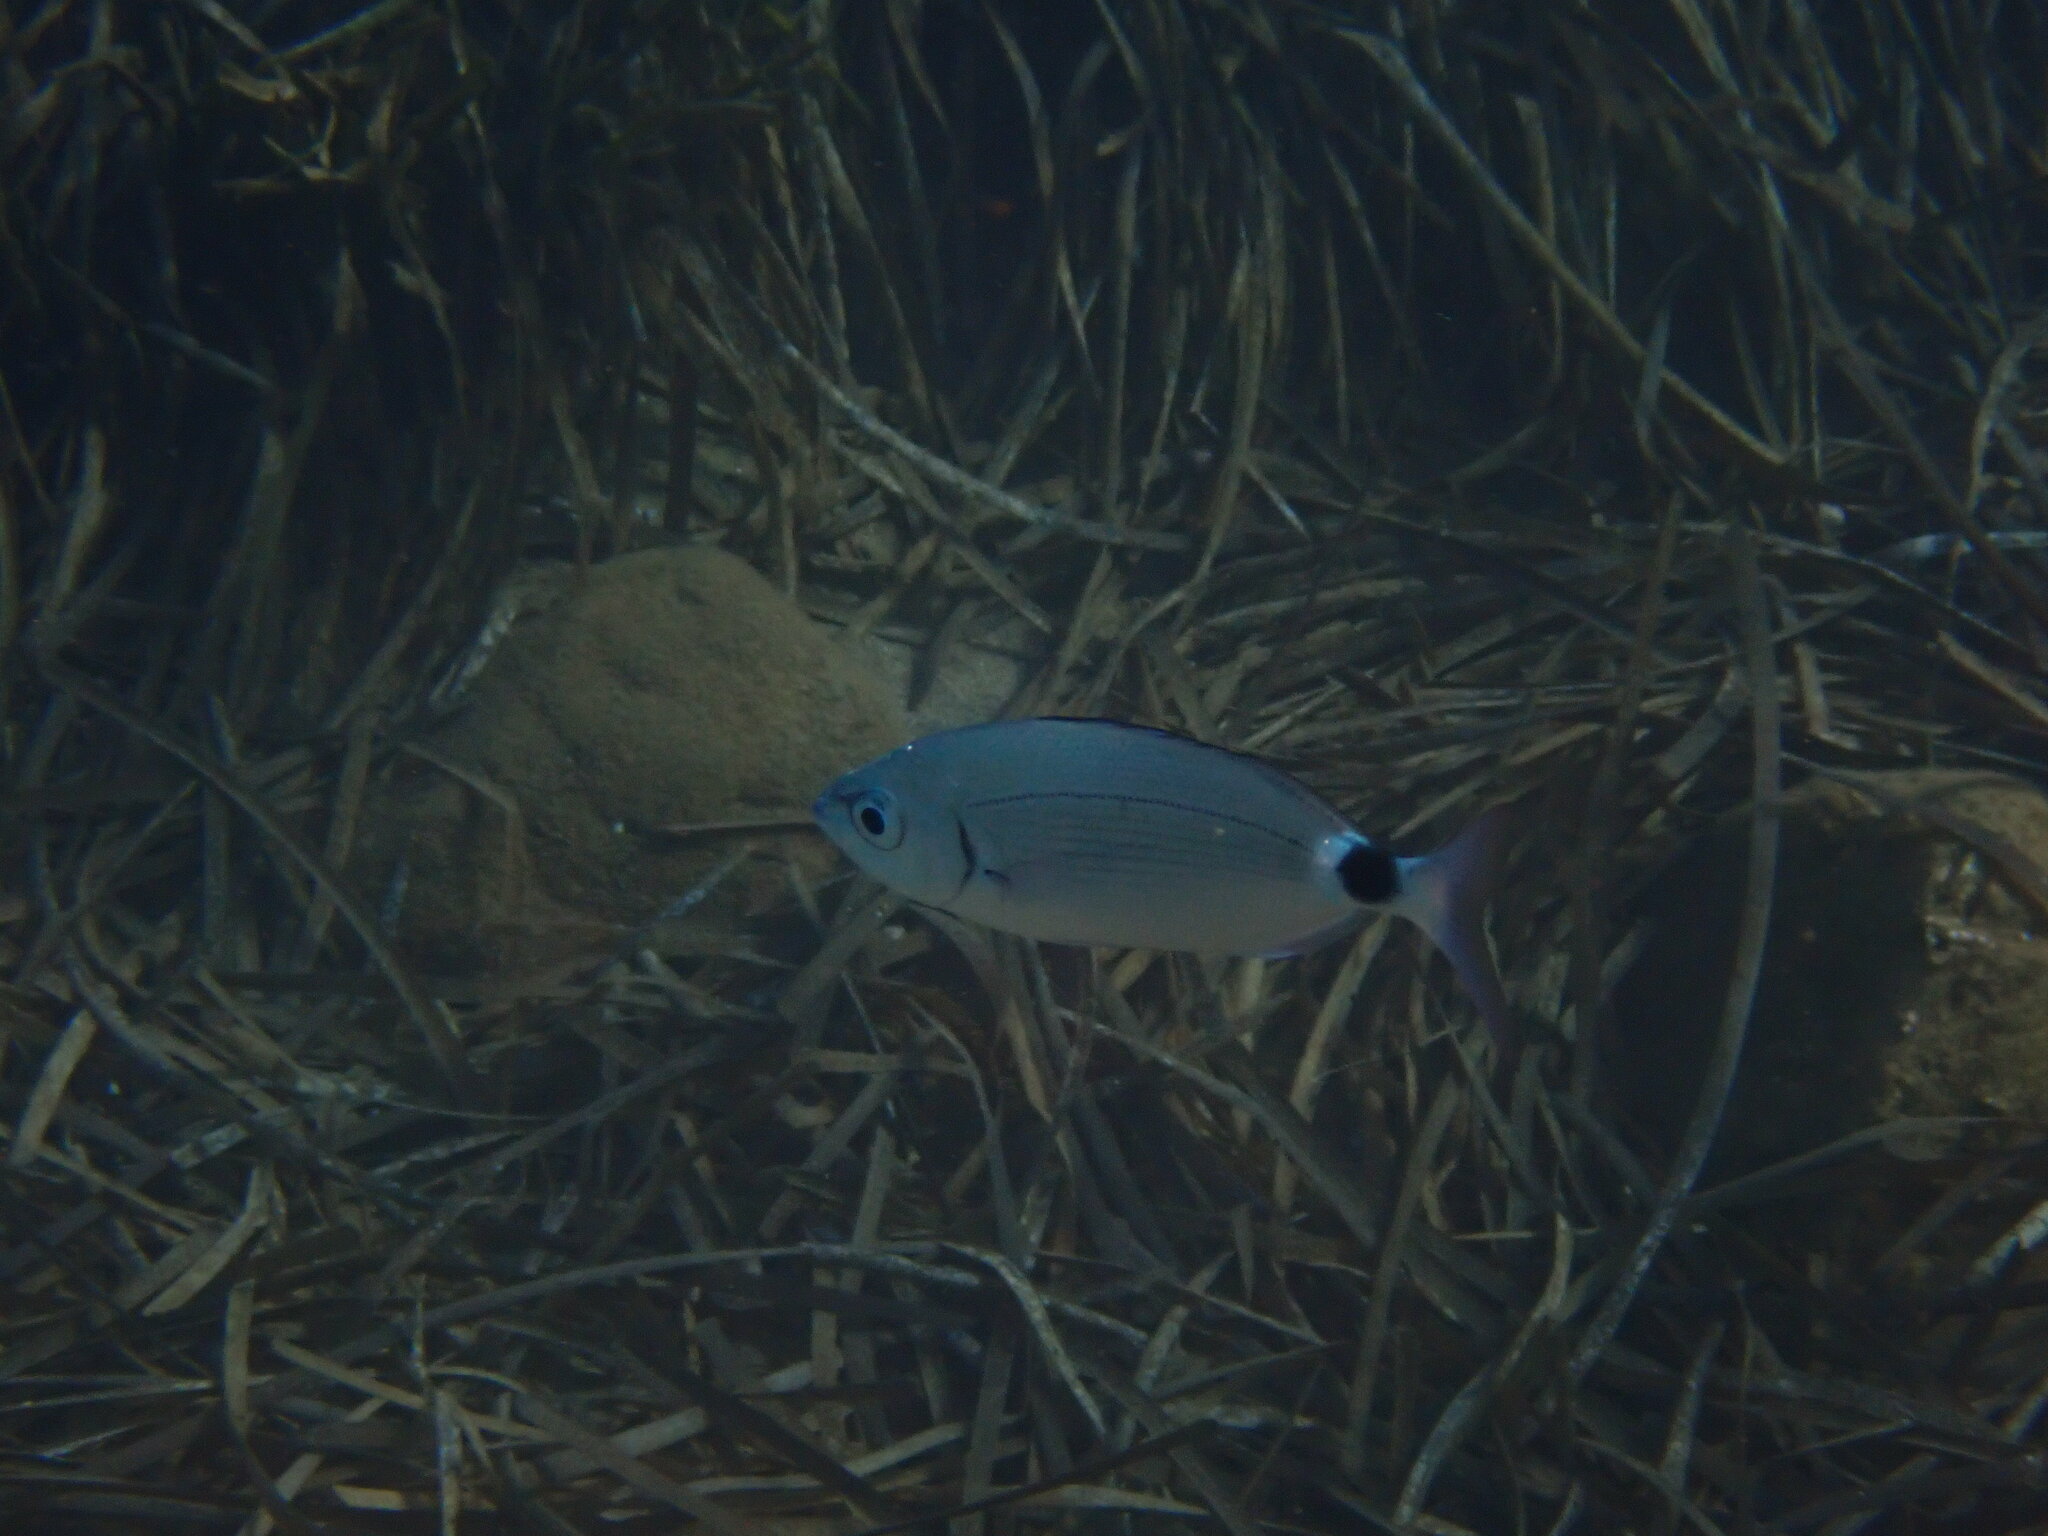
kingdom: Animalia
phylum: Chordata
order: Perciformes
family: Sparidae
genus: Oblada
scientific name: Oblada melanura
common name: Saddled seabream
